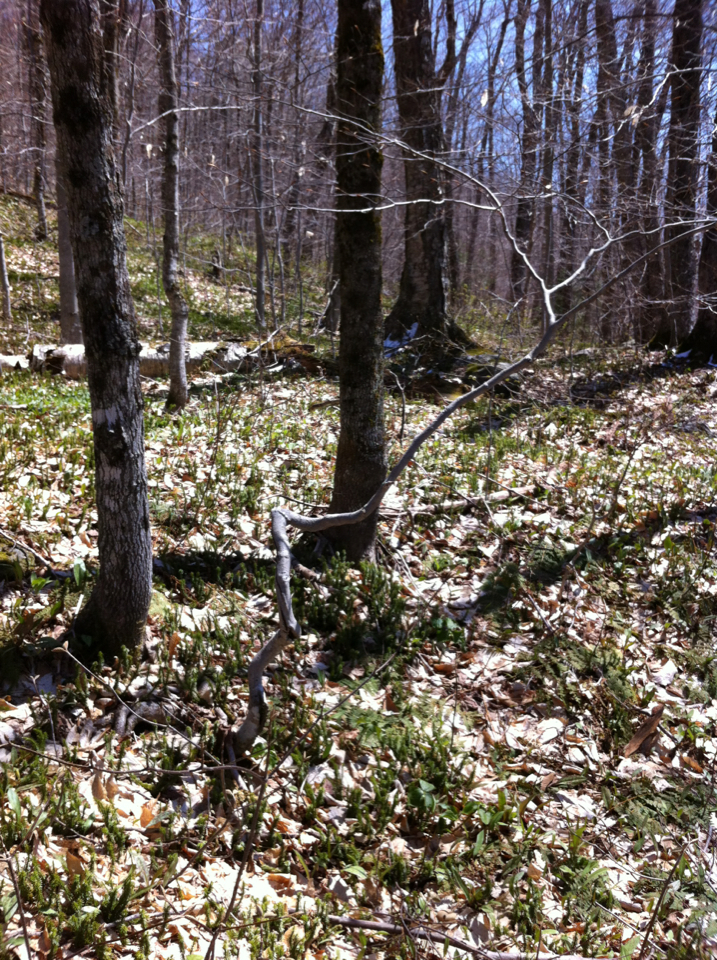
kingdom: Plantae
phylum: Tracheophyta
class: Magnoliopsida
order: Fagales
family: Fagaceae
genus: Fagus
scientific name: Fagus grandifolia
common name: American beech
